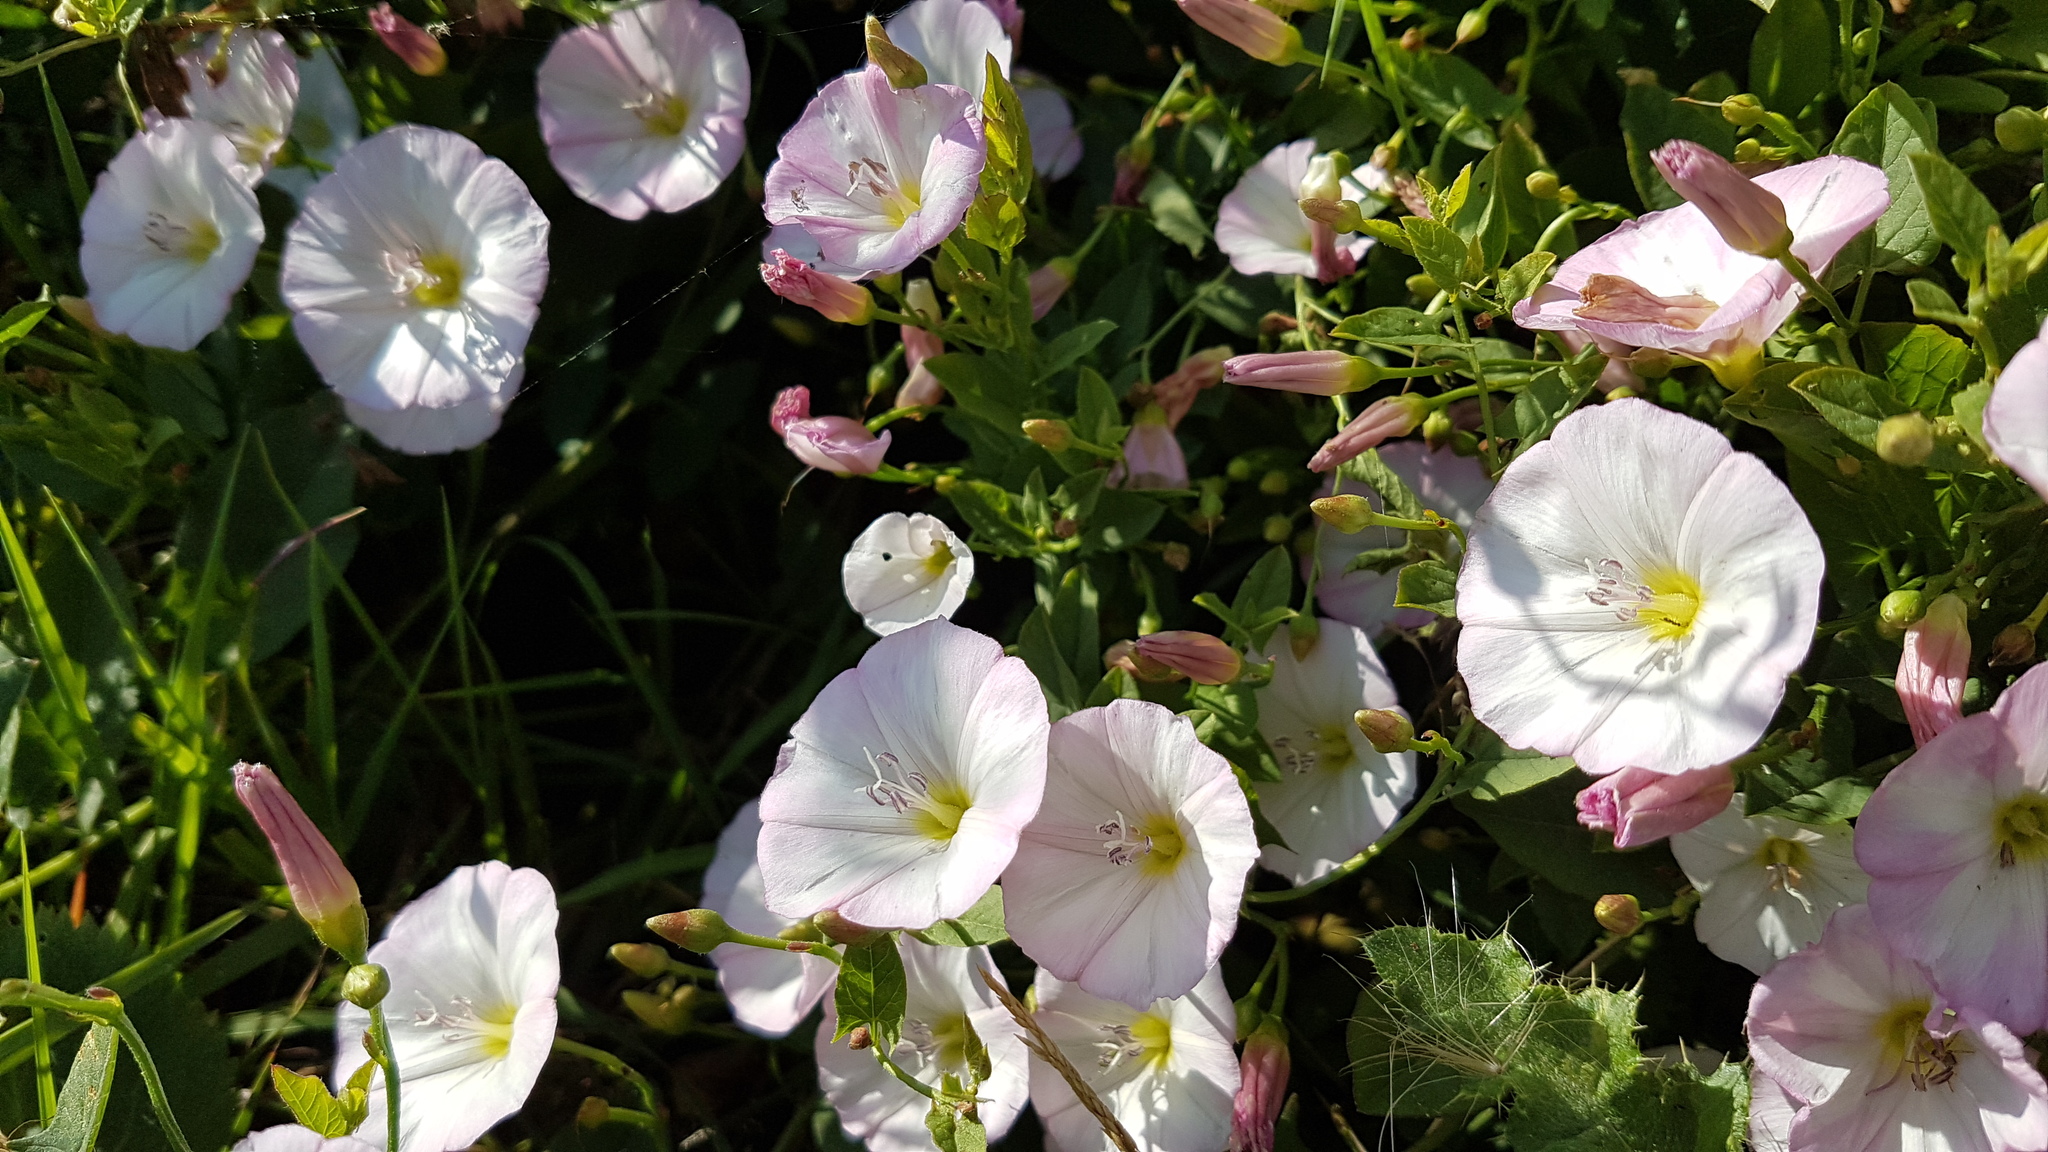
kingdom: Plantae
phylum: Tracheophyta
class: Magnoliopsida
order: Solanales
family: Convolvulaceae
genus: Convolvulus
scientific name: Convolvulus arvensis
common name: Field bindweed
